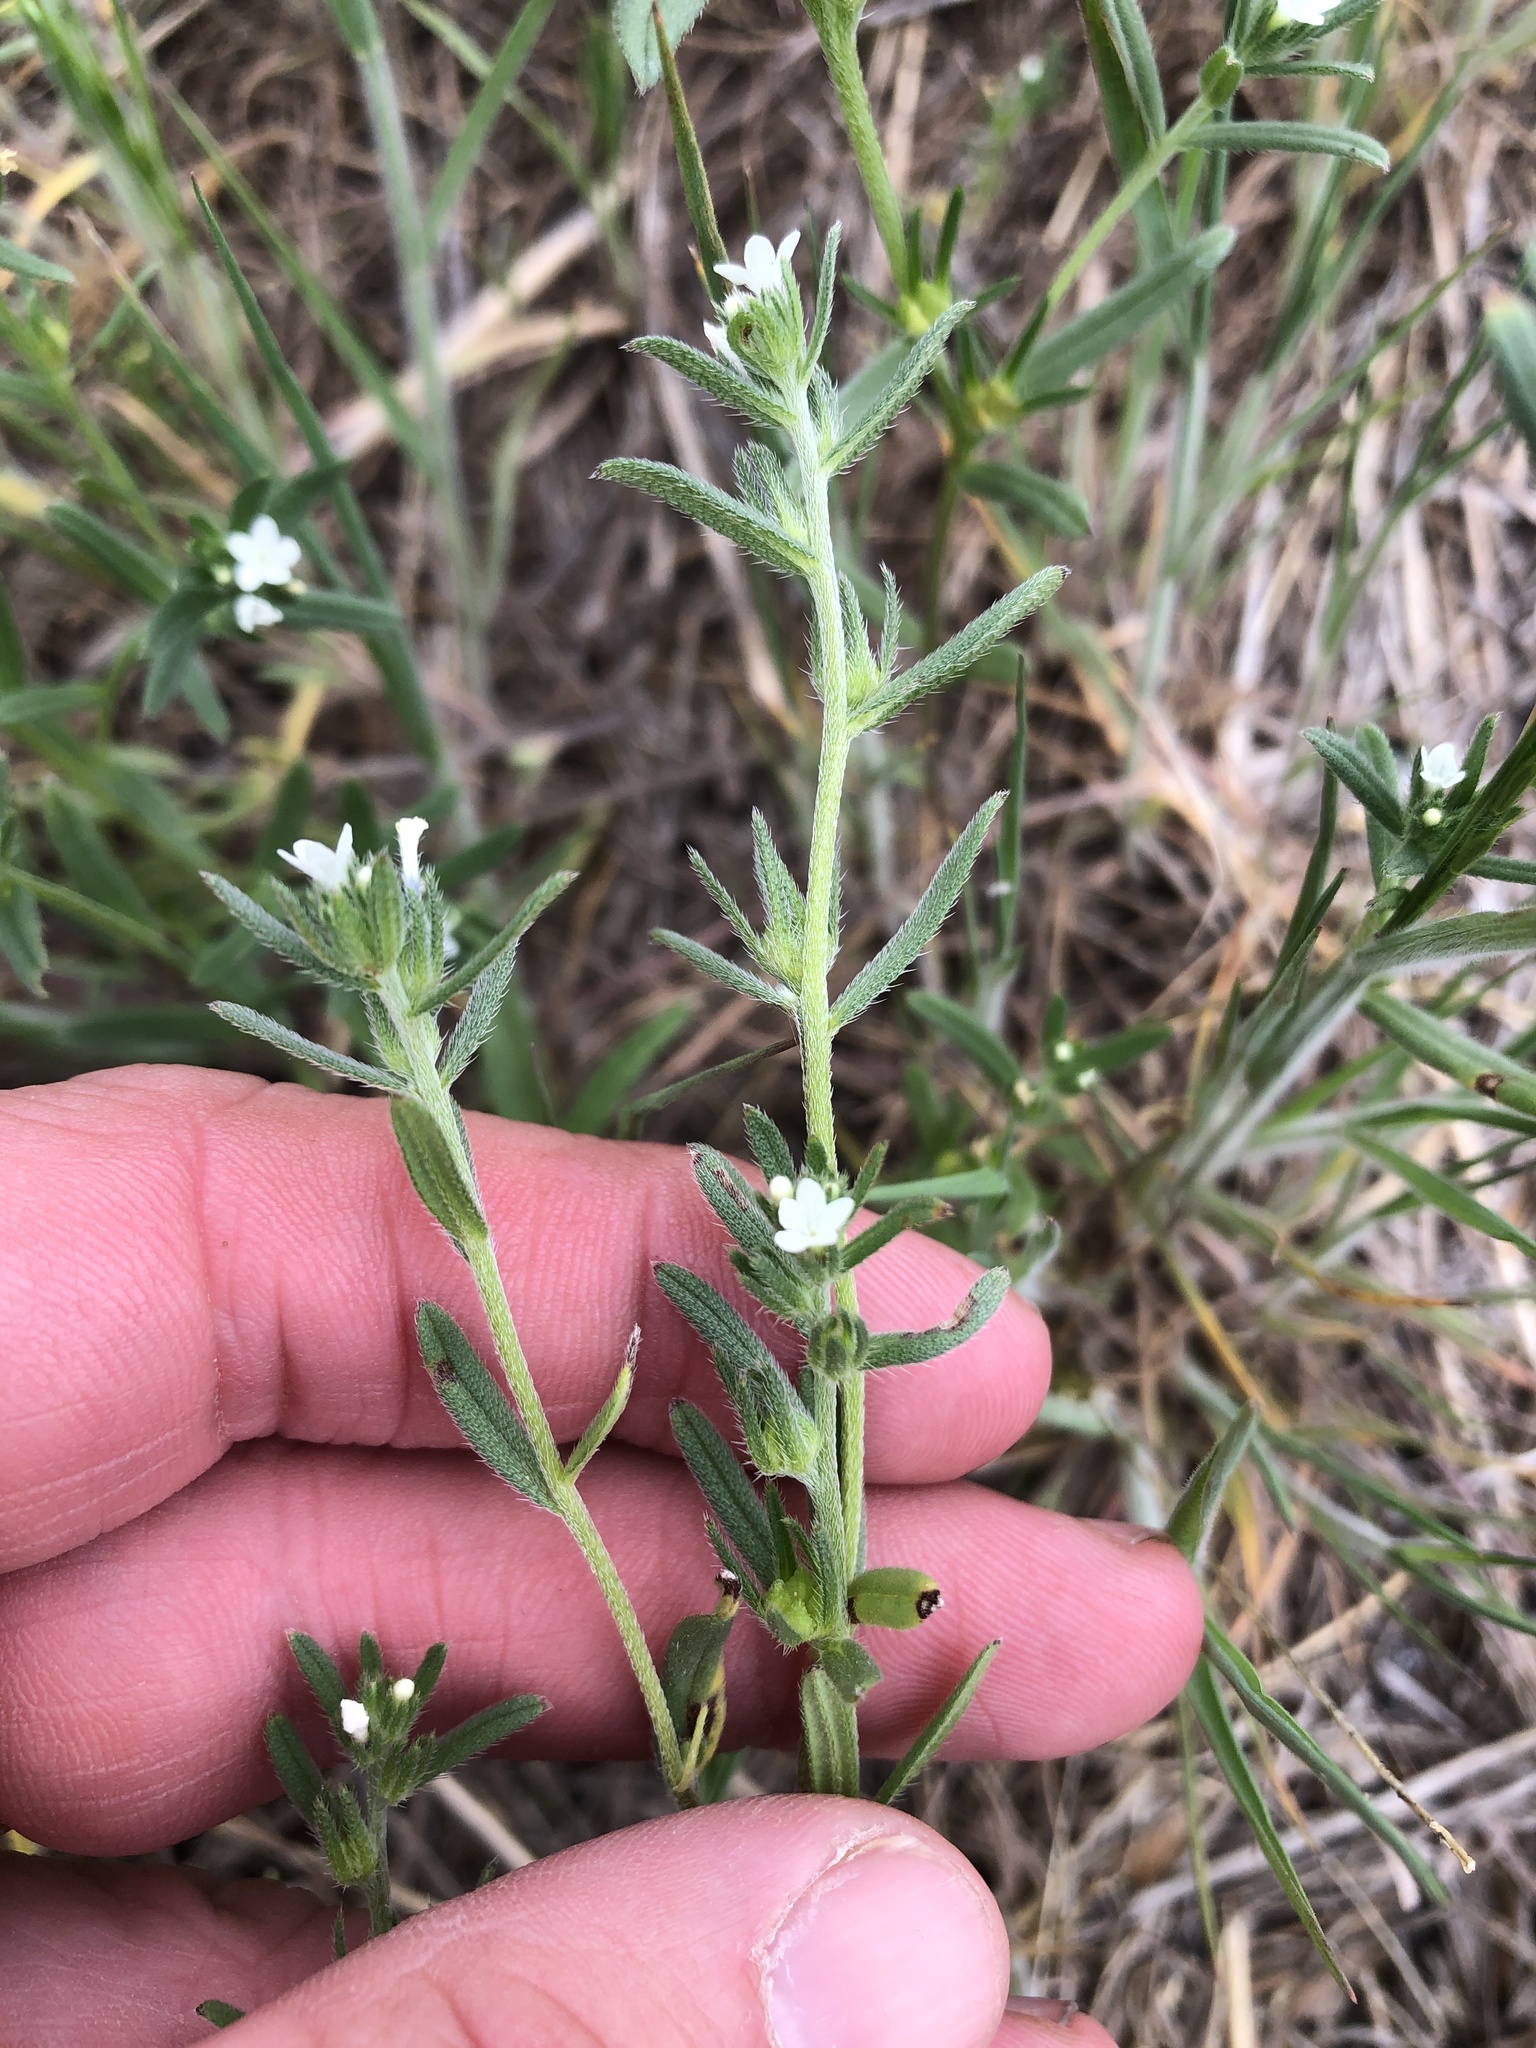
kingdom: Plantae
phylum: Tracheophyta
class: Magnoliopsida
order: Boraginales
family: Boraginaceae
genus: Buglossoides
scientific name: Buglossoides arvensis
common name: Corn gromwell
